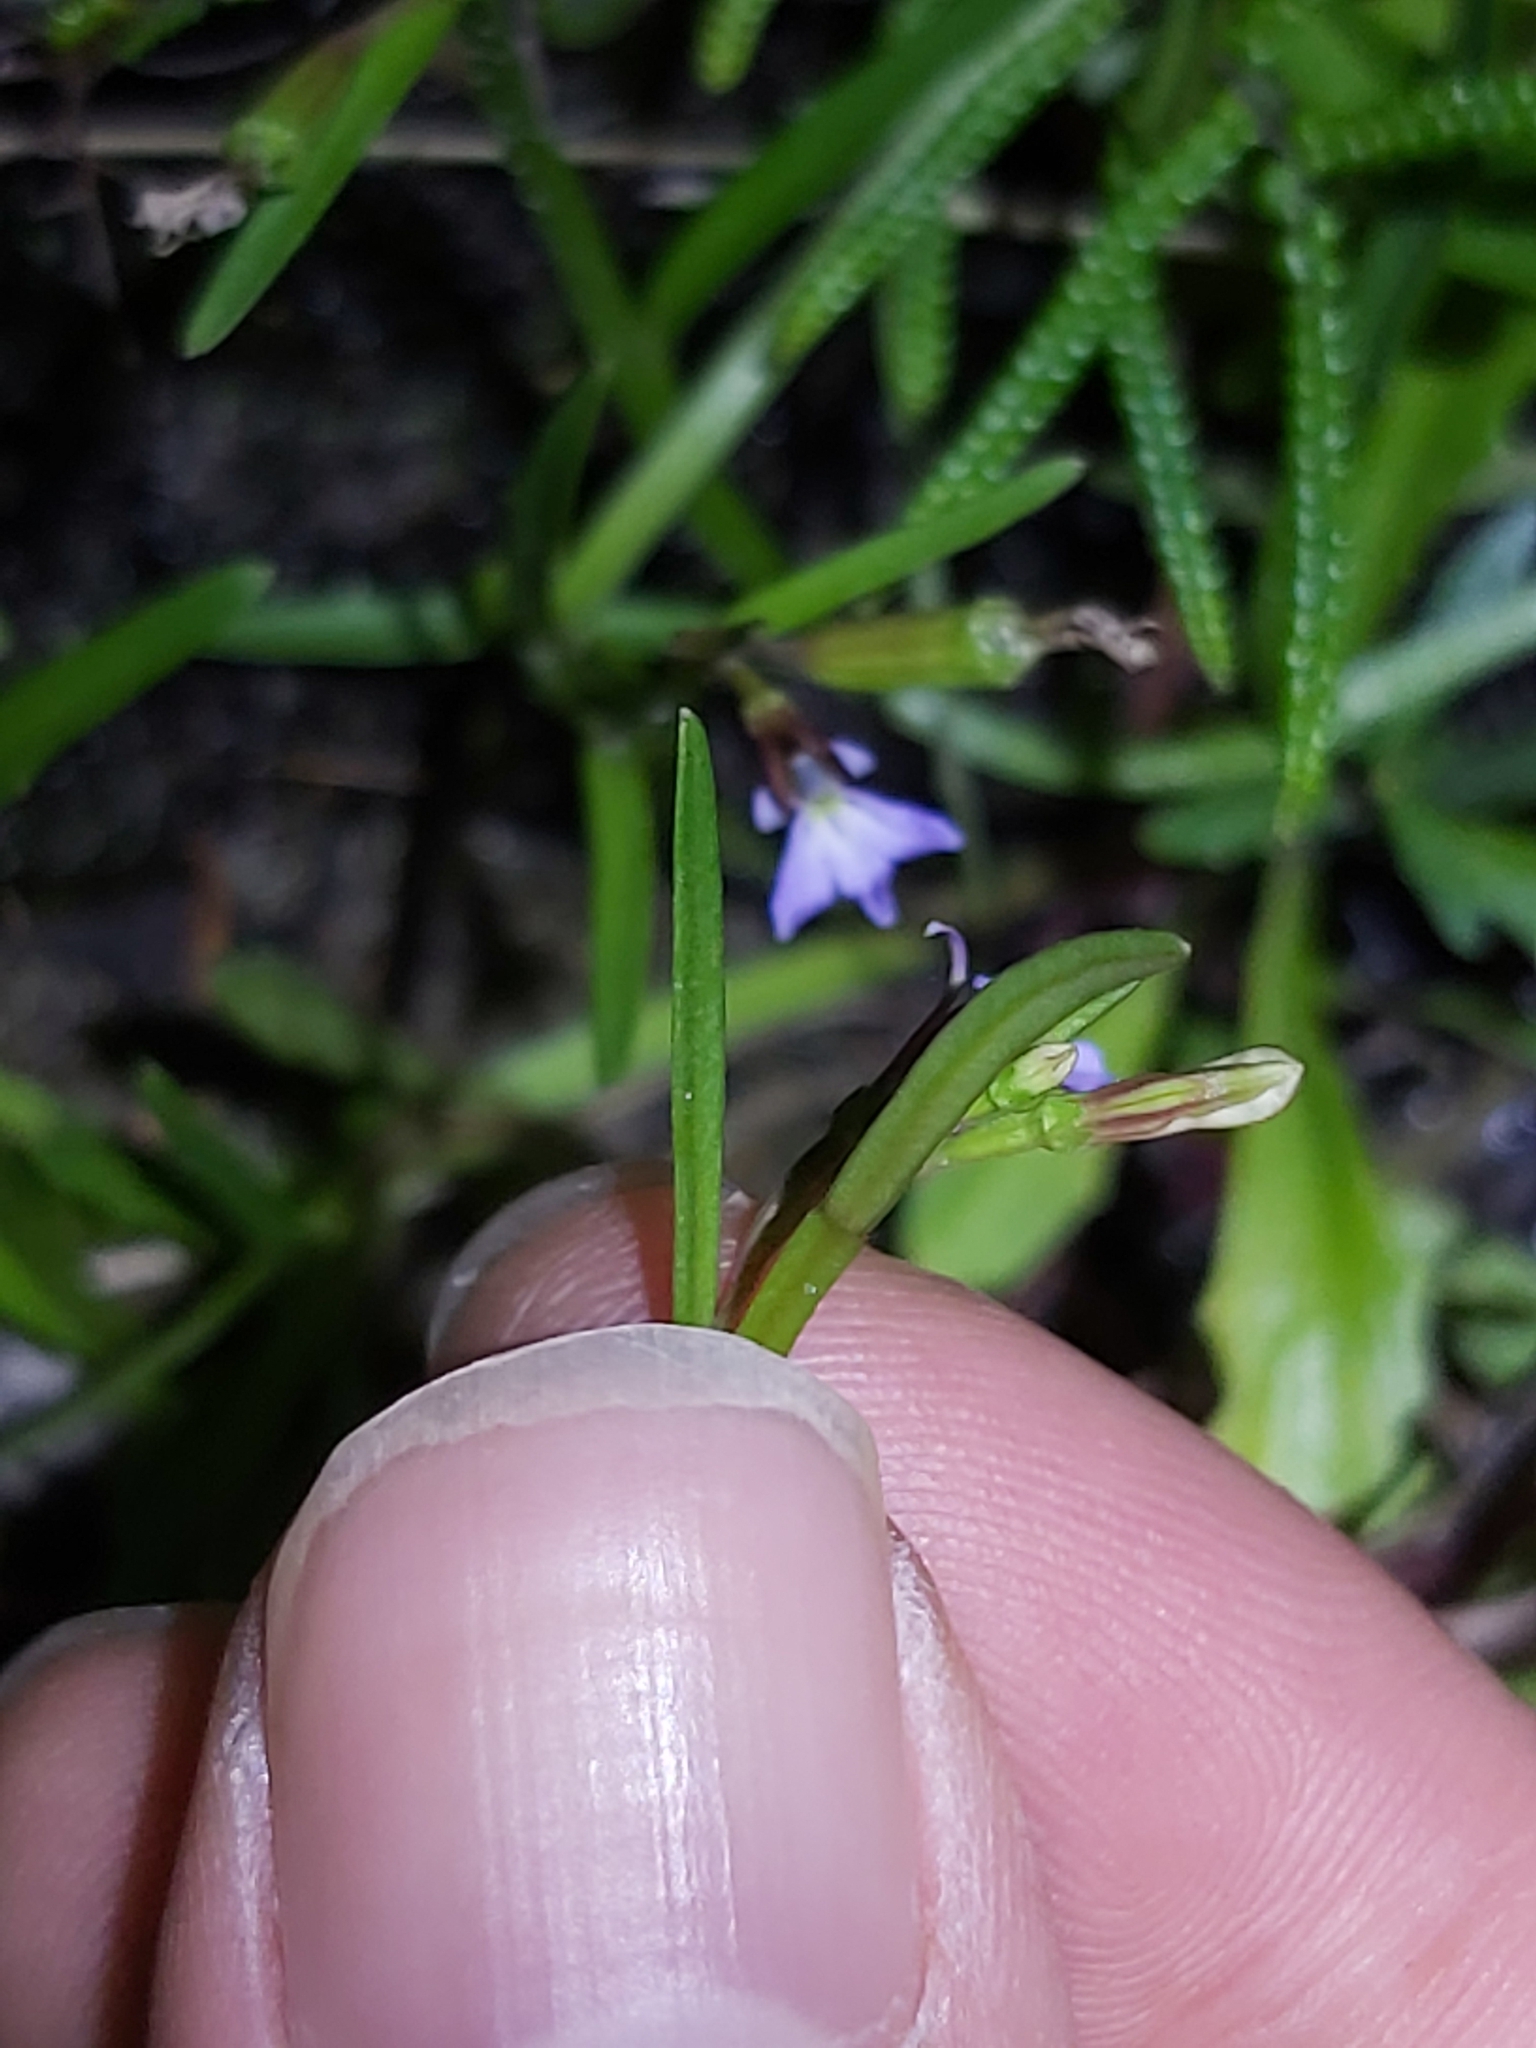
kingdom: Plantae
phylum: Tracheophyta
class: Magnoliopsida
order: Asterales
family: Campanulaceae
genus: Lobelia
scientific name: Lobelia anceps
